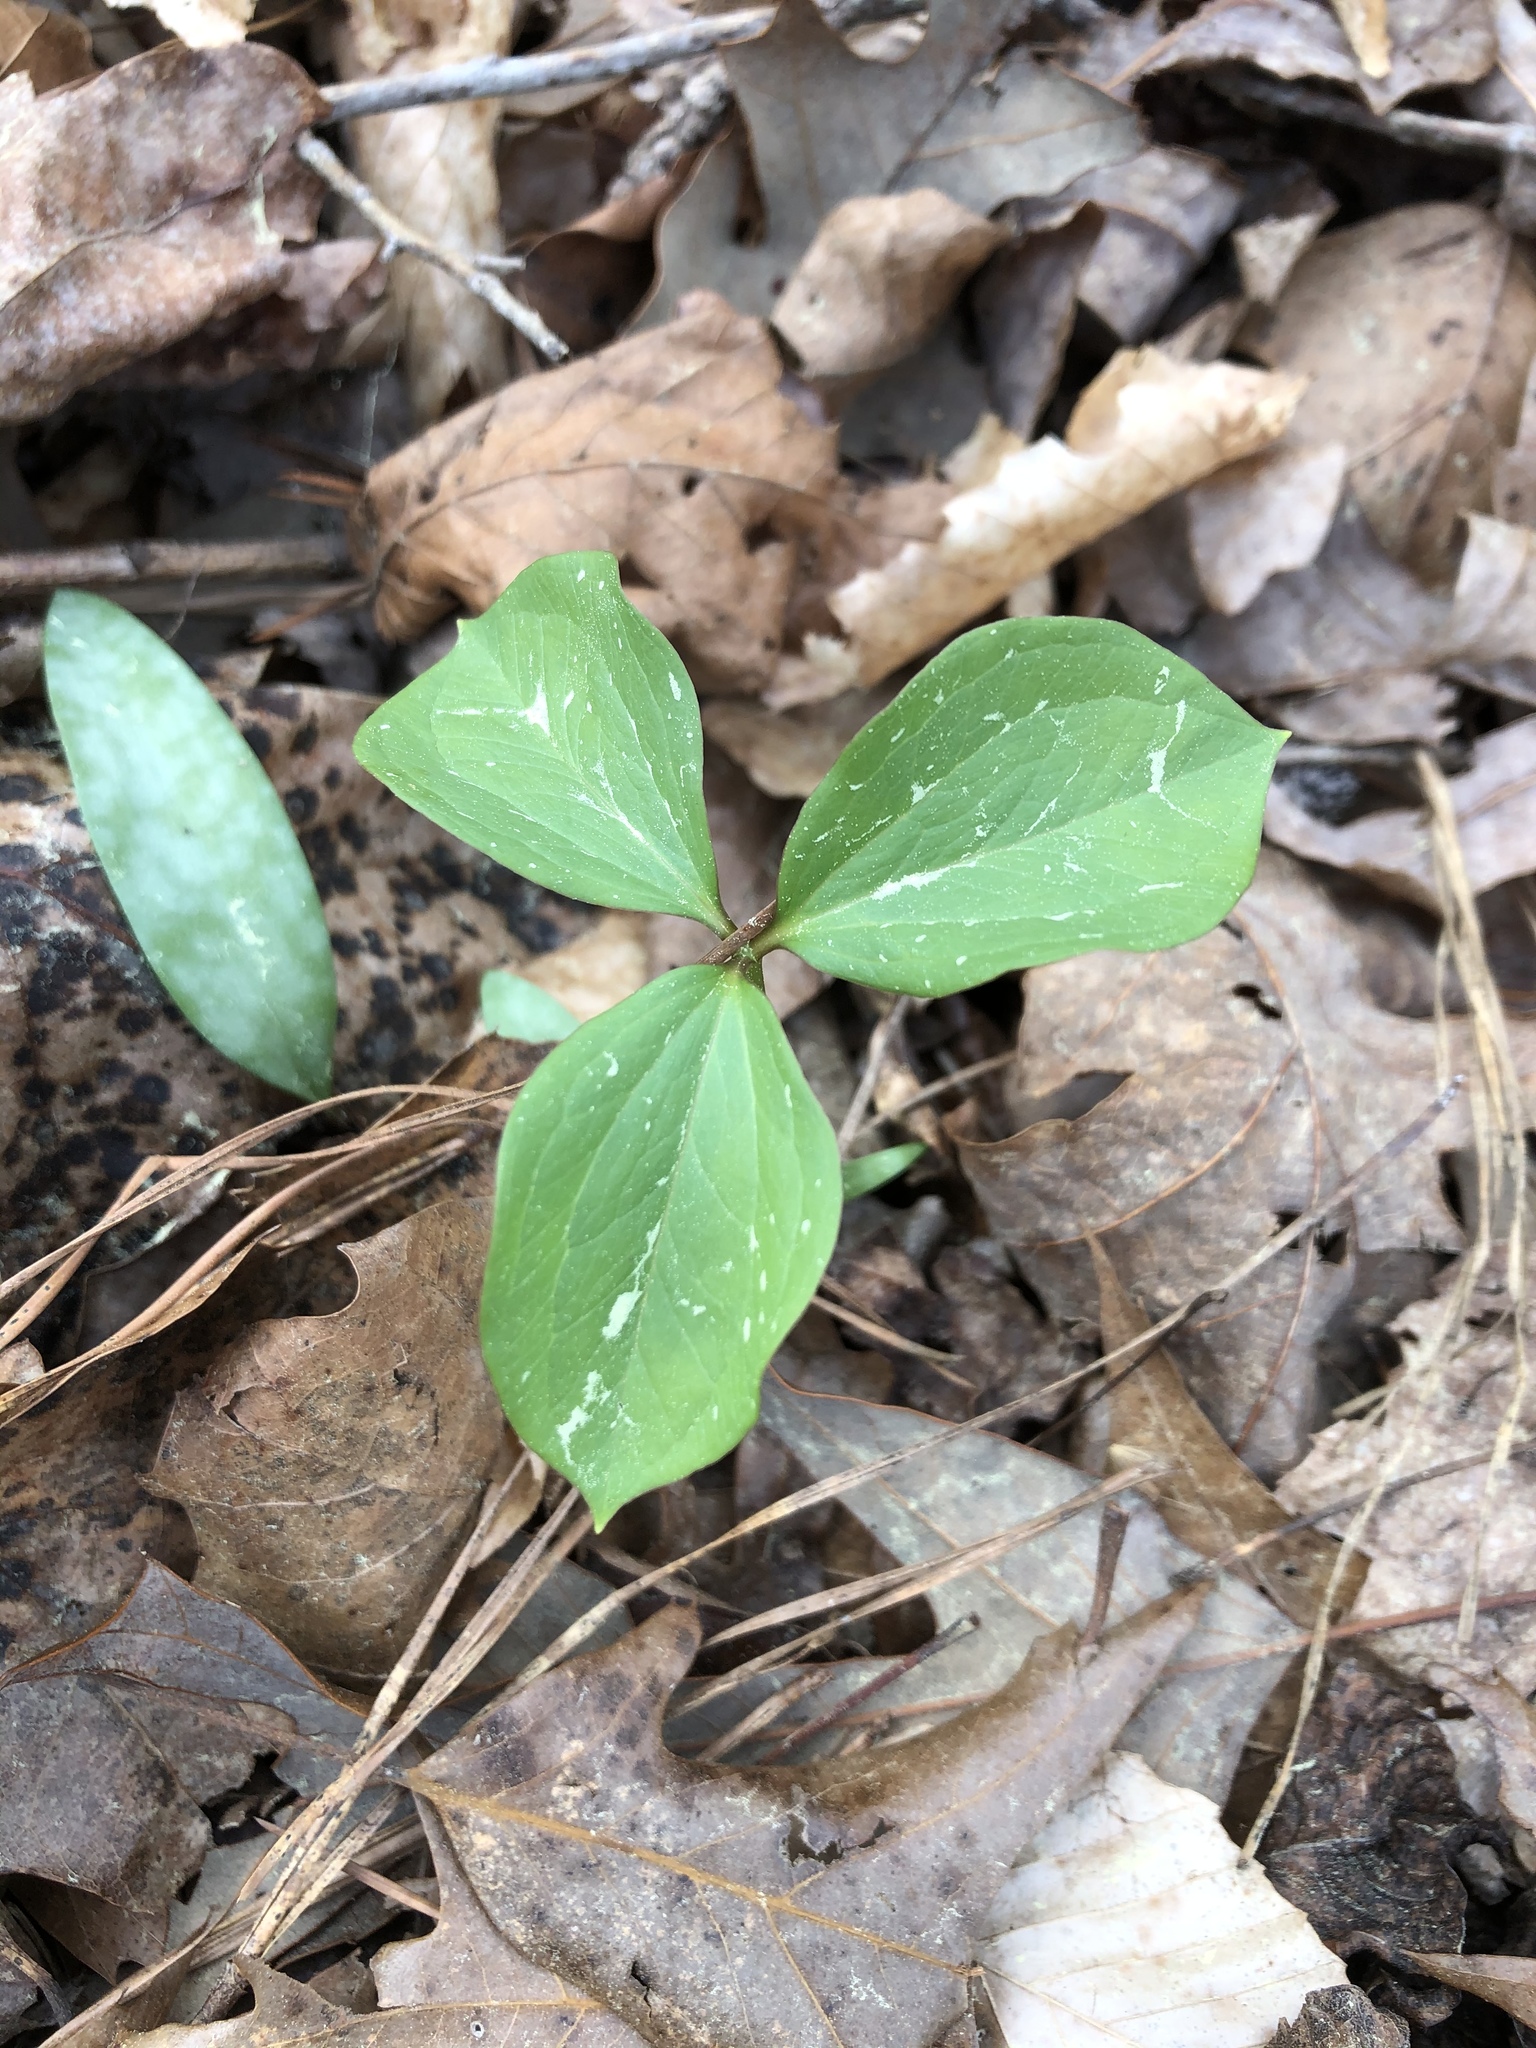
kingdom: Plantae
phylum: Tracheophyta
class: Liliopsida
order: Liliales
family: Melanthiaceae
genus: Trillium
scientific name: Trillium catesbaei
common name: Bashful trillium
